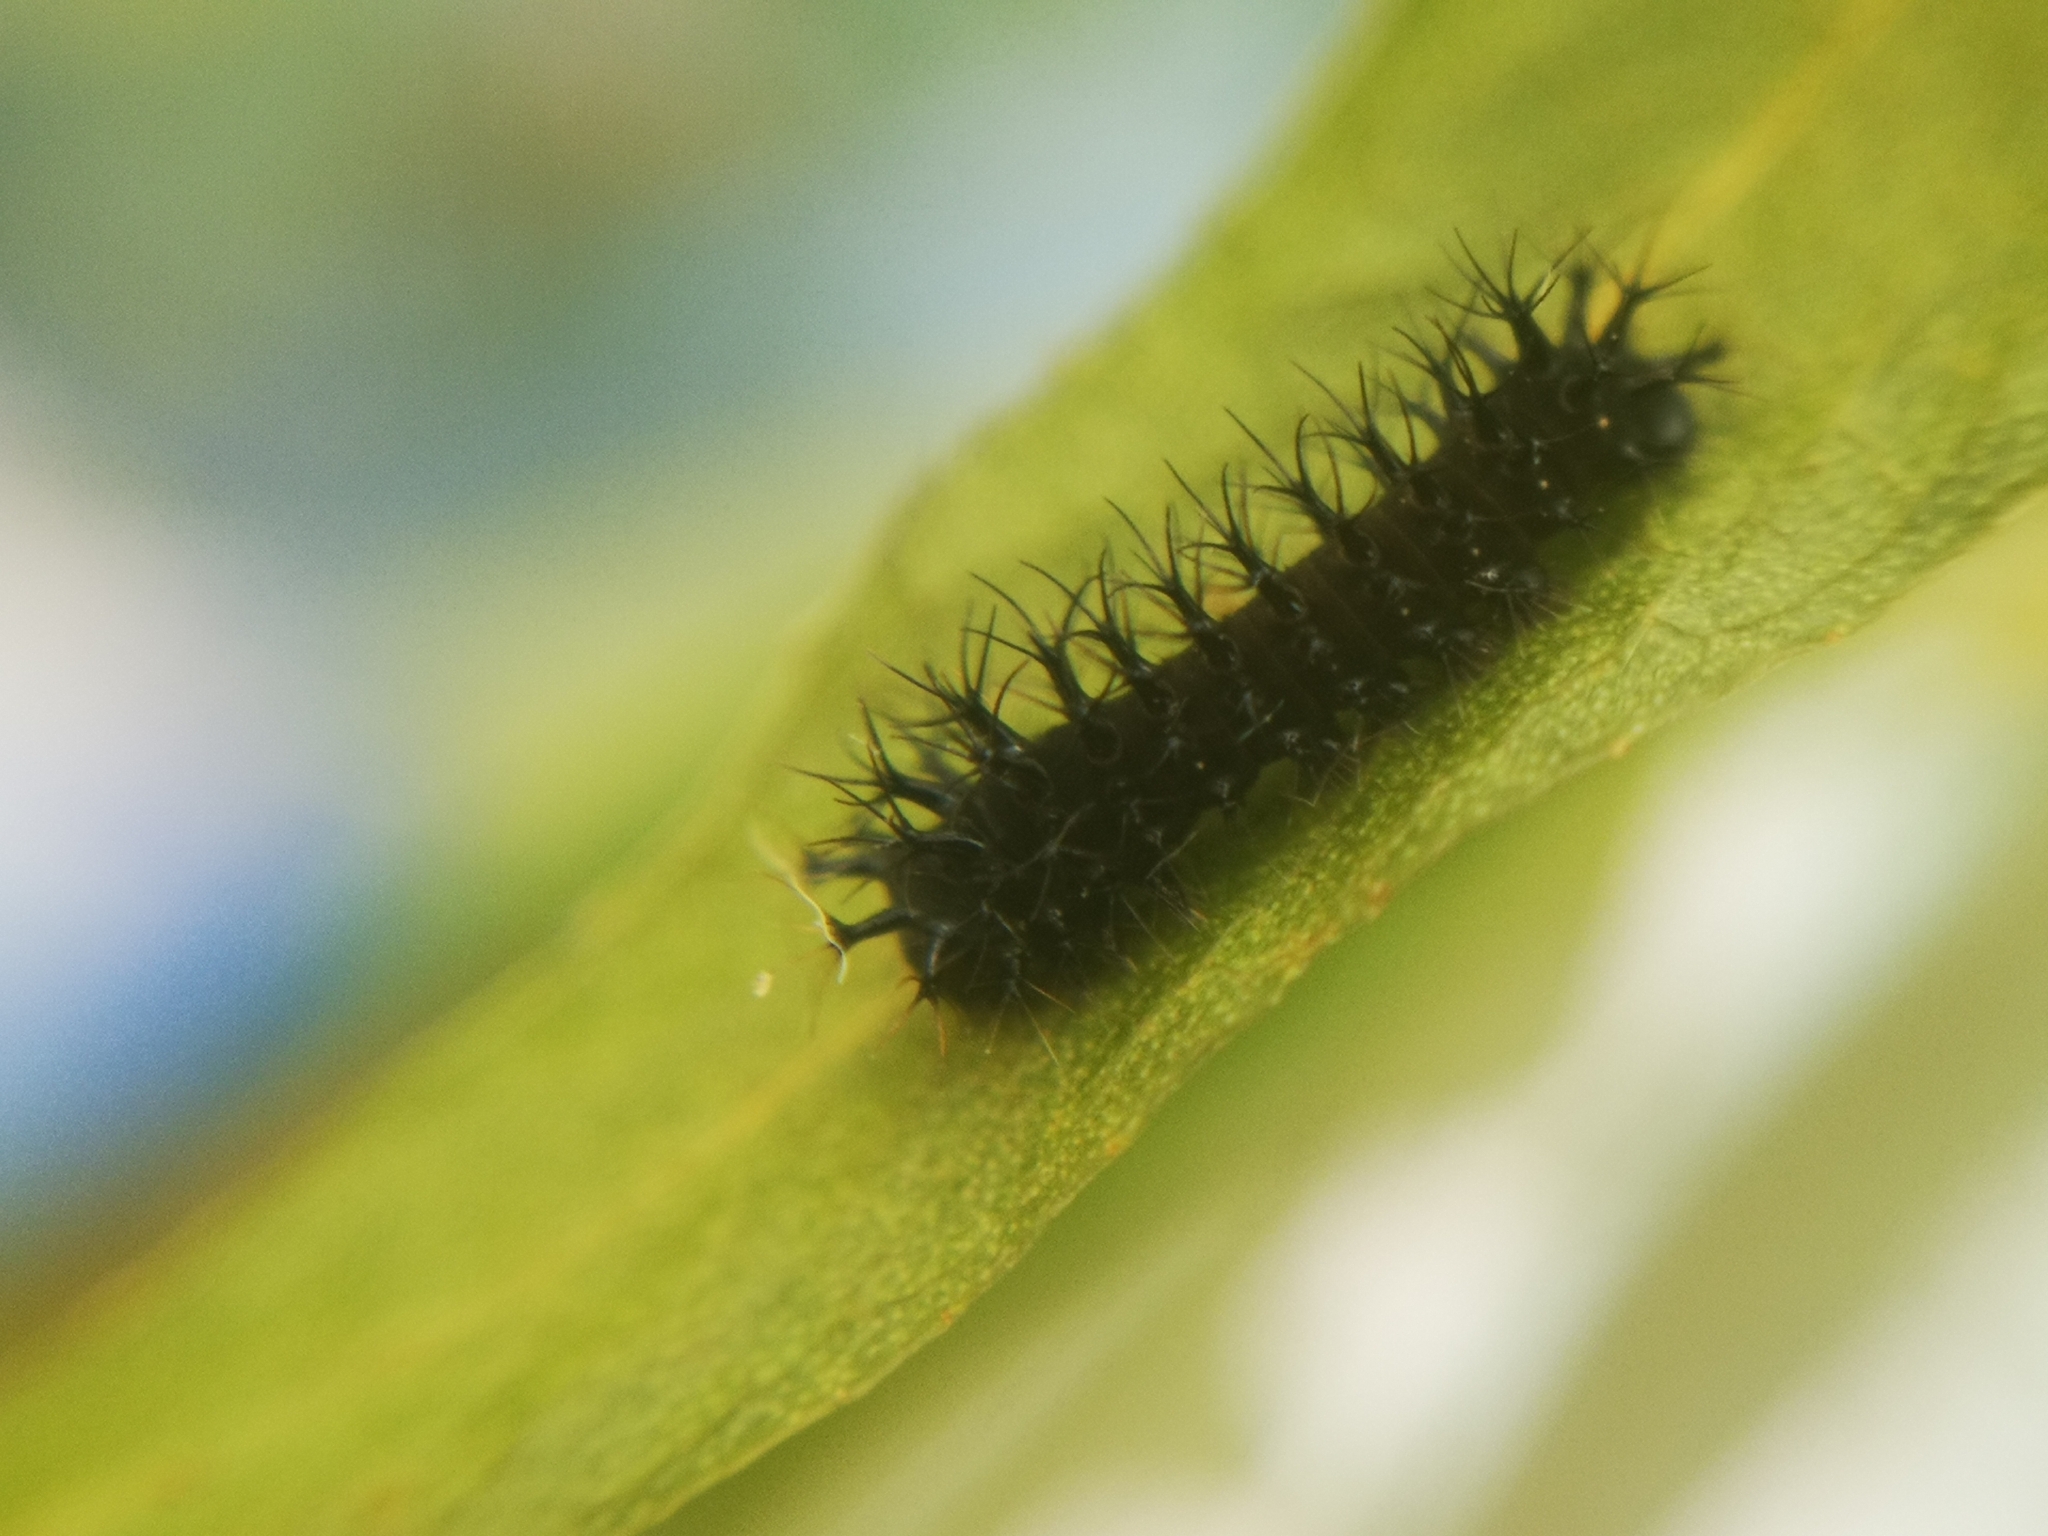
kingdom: Animalia
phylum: Arthropoda
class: Insecta
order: Lepidoptera
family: Saturniidae
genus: Hyalophora
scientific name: Hyalophora cecropia
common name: Cecropia silkmoth
